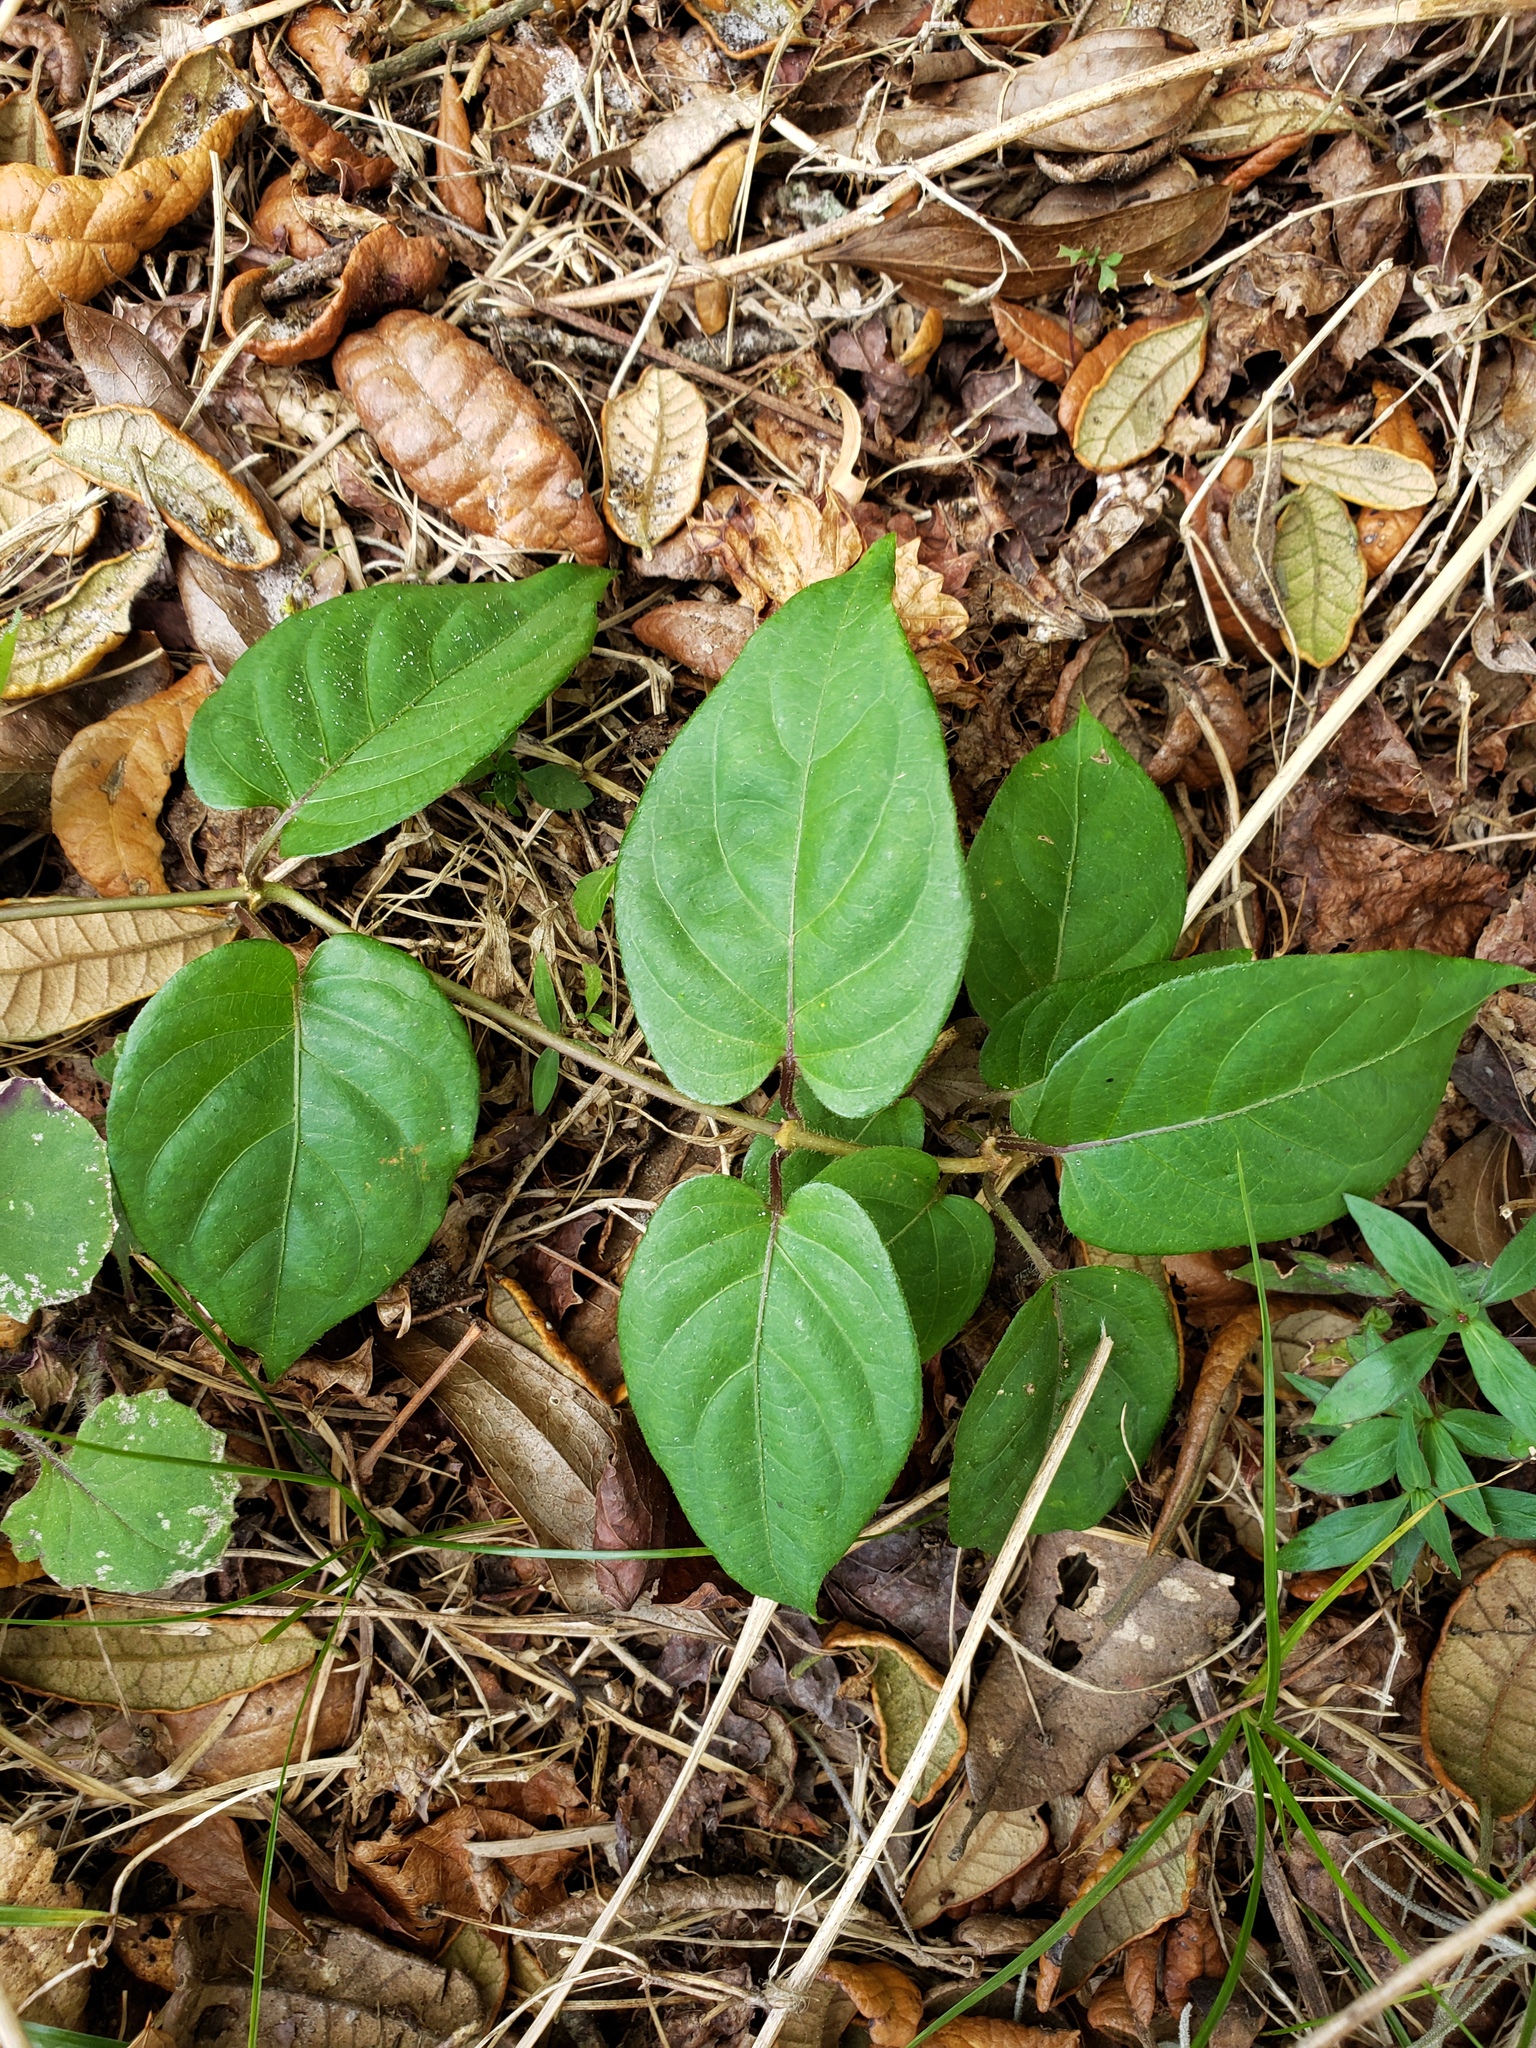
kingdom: Plantae
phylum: Tracheophyta
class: Magnoliopsida
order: Gentianales
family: Rubiaceae
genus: Paederia
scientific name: Paederia foetida
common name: Stinkvine
